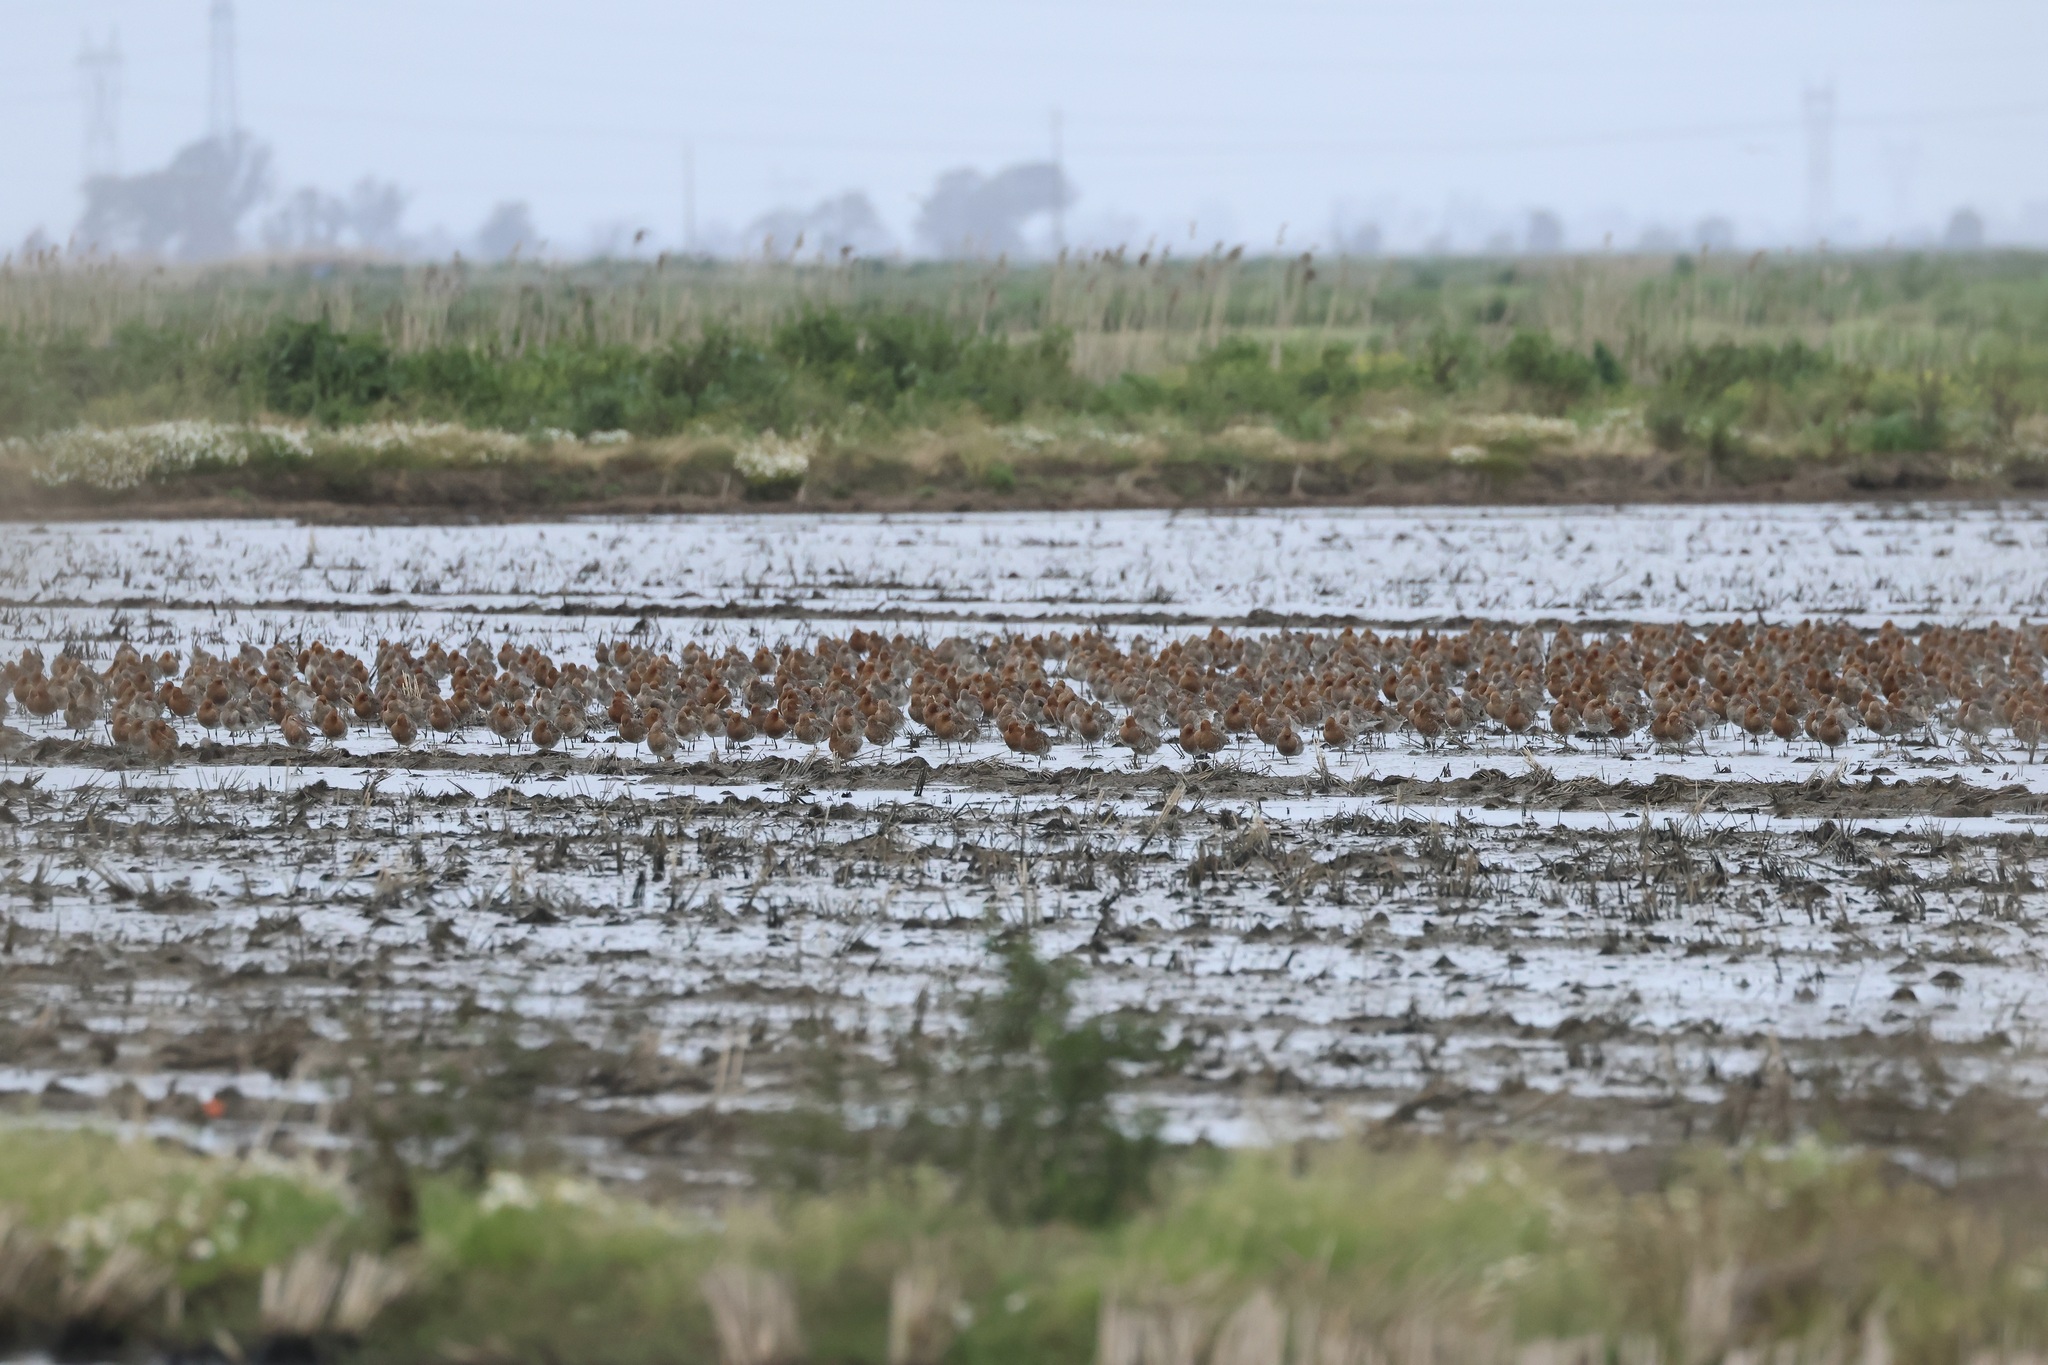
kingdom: Animalia
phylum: Chordata
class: Aves
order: Charadriiformes
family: Scolopacidae
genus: Limosa
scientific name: Limosa limosa
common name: Black-tailed godwit
